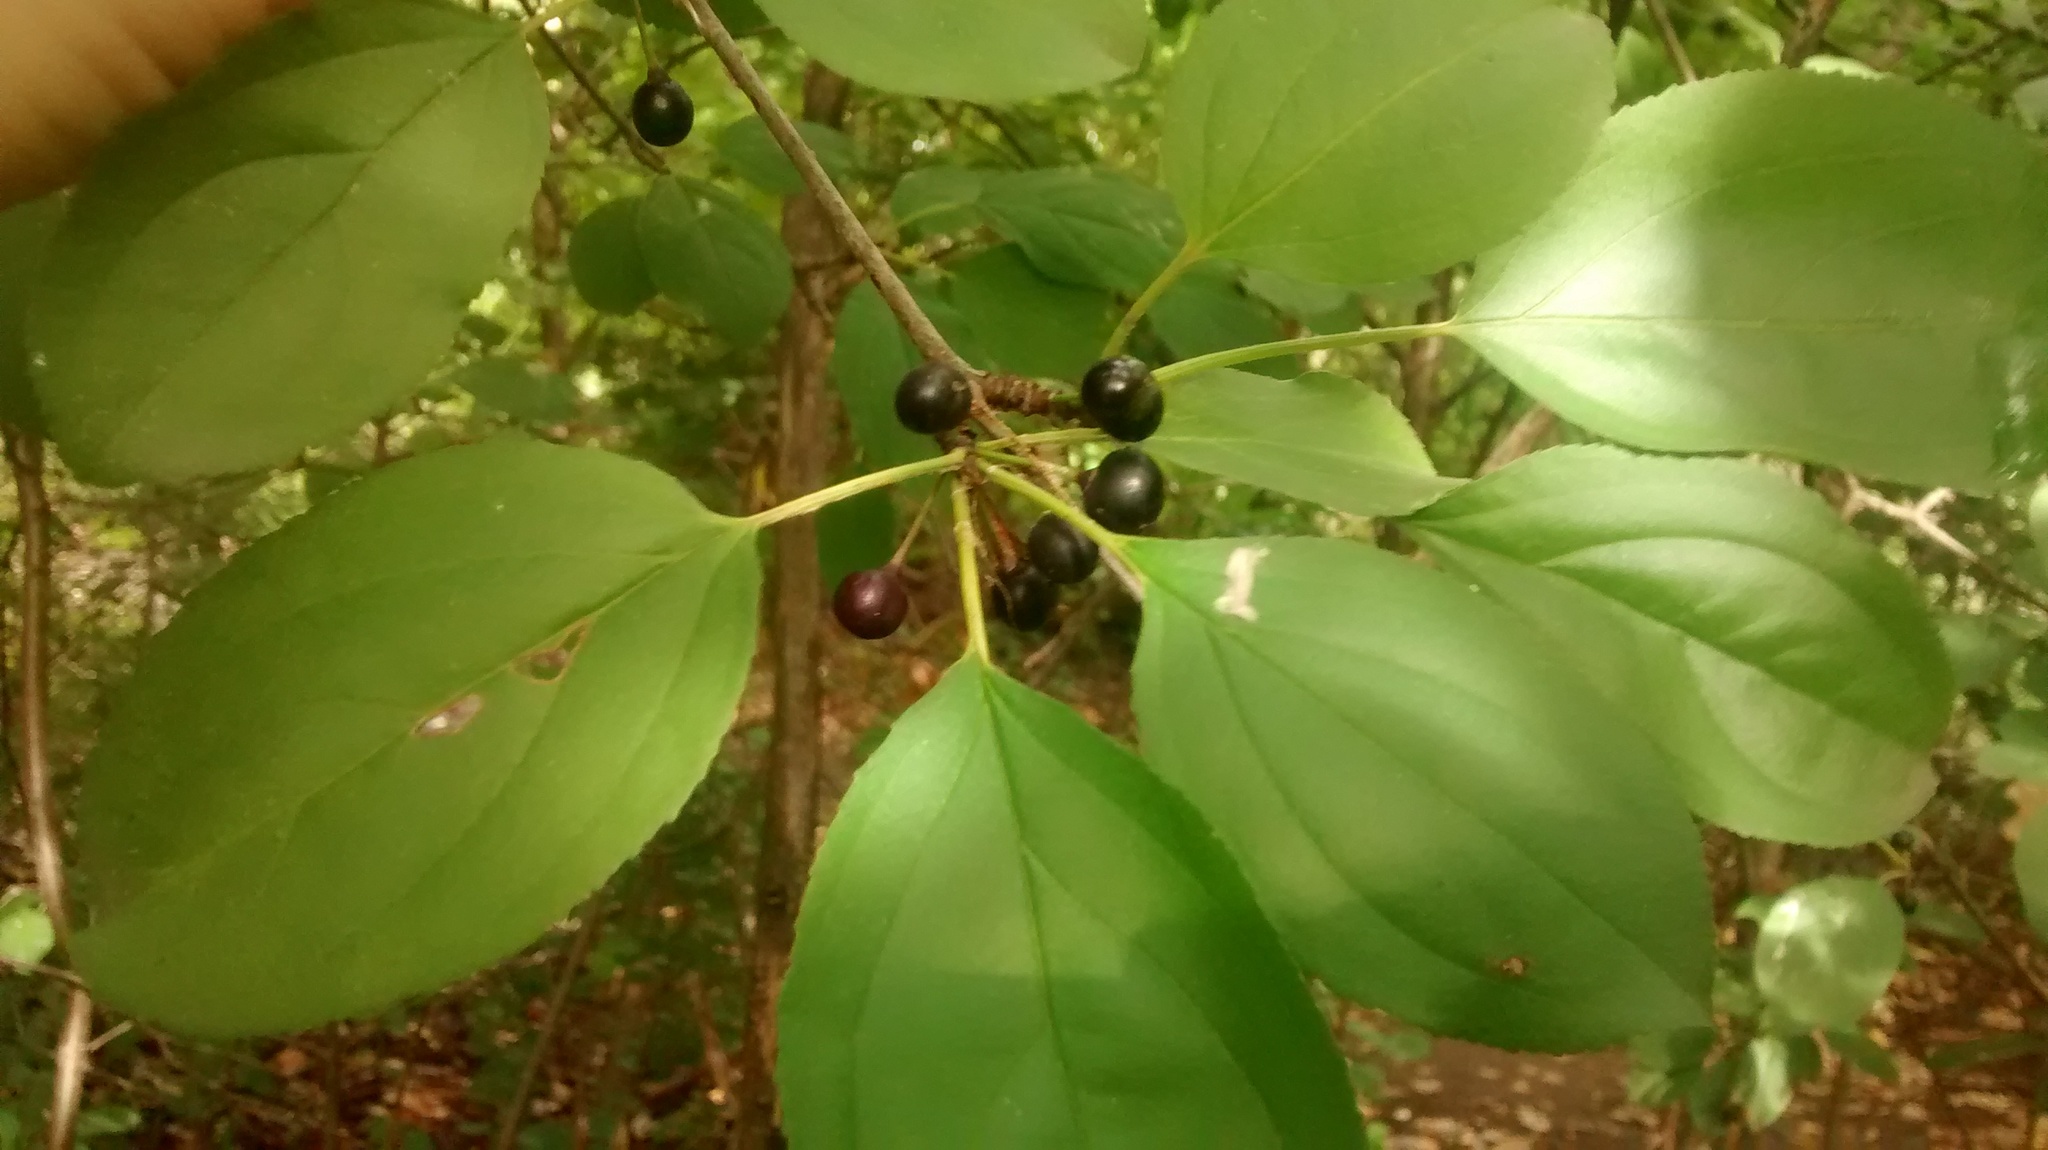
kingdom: Plantae
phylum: Tracheophyta
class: Magnoliopsida
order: Rosales
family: Rhamnaceae
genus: Rhamnus
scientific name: Rhamnus cathartica
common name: Common buckthorn
